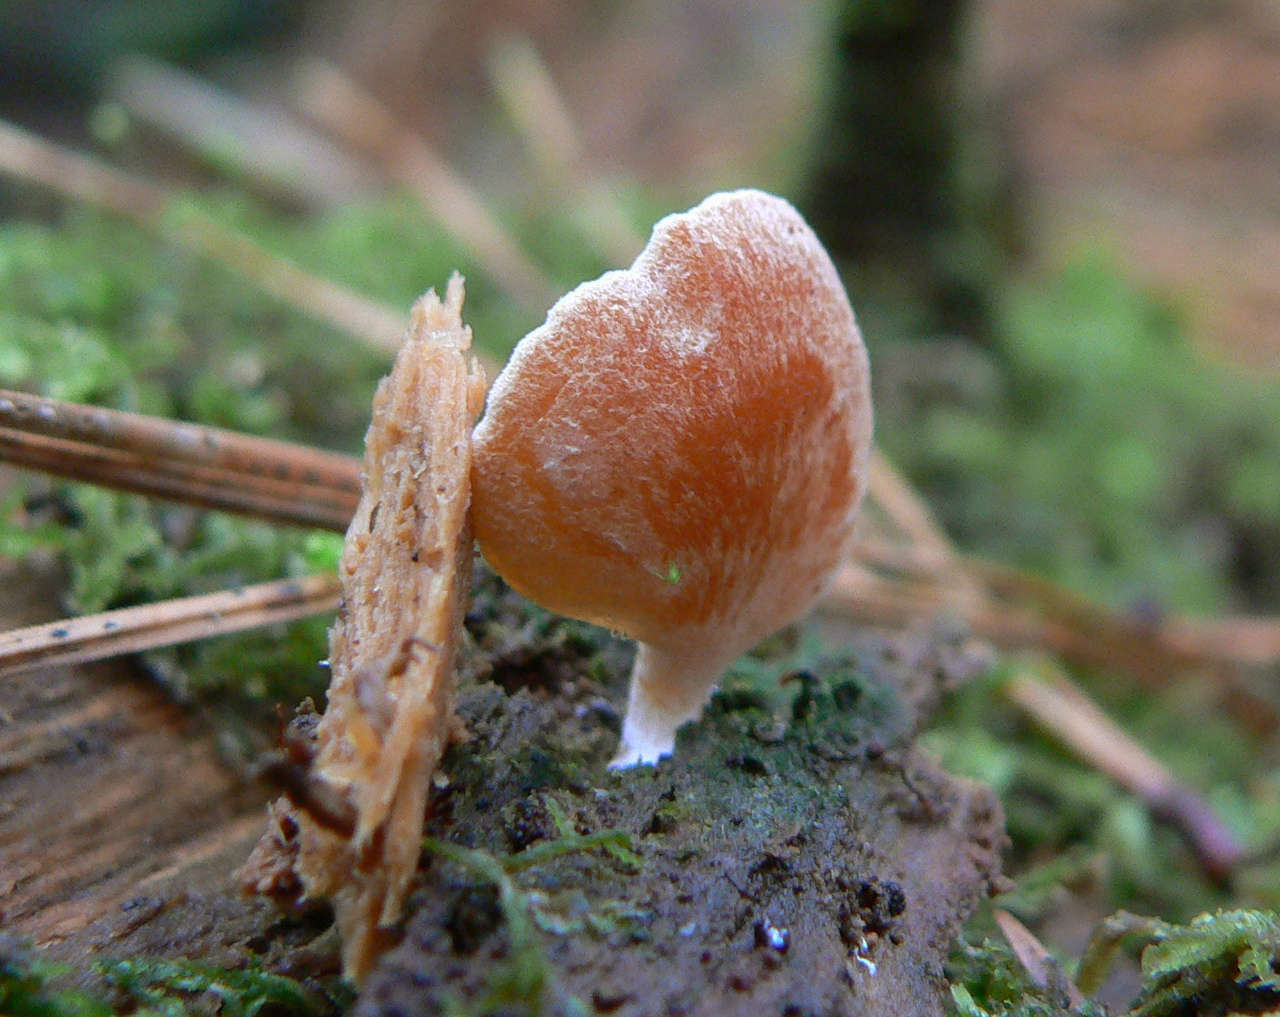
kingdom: Fungi
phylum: Basidiomycota
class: Agaricomycetes
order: Agaricales
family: Pleurotaceae
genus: Hohenbuehelia
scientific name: Hohenbuehelia ligulata
